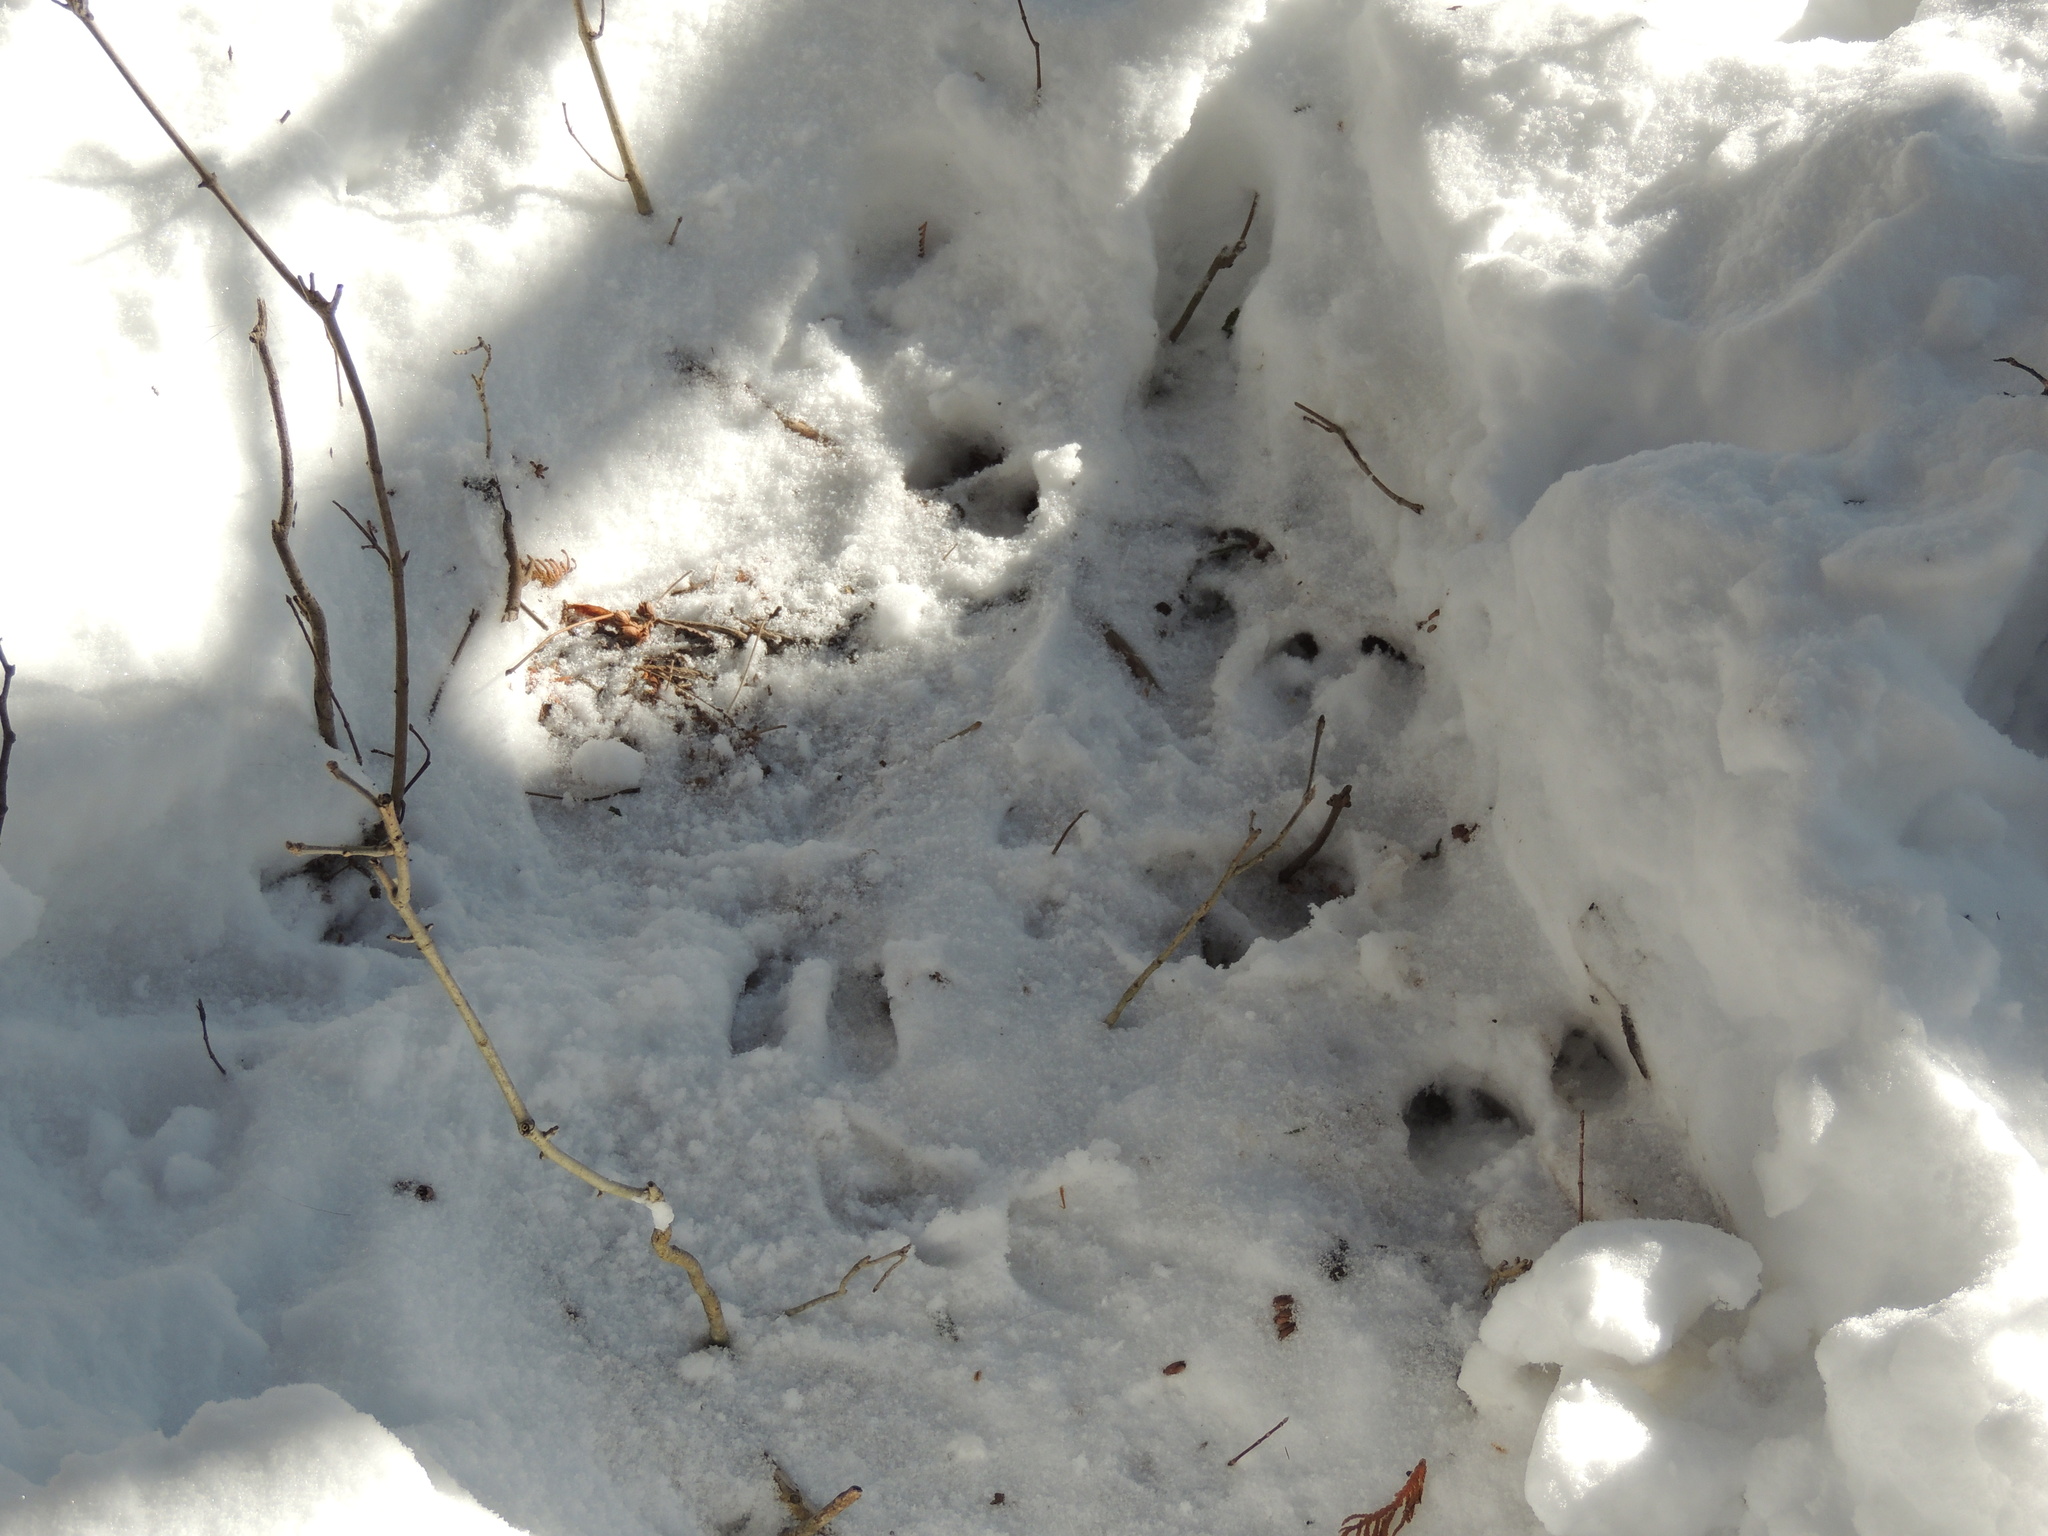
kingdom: Animalia
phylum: Chordata
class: Mammalia
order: Artiodactyla
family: Cervidae
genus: Odocoileus
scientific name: Odocoileus virginianus
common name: White-tailed deer
